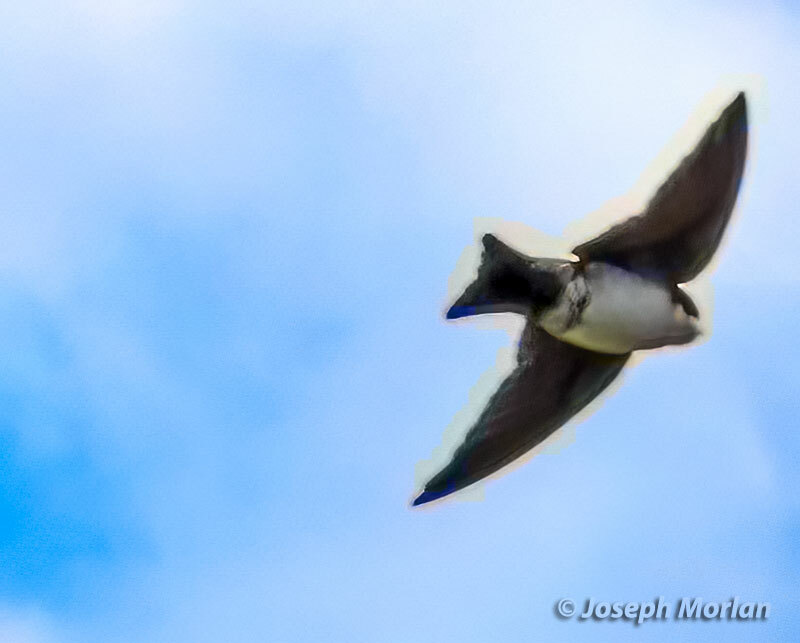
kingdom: Animalia
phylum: Chordata
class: Aves
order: Passeriformes
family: Hirundinidae
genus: Notiochelidon
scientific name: Notiochelidon cyanoleuca
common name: Blue-and-white swallow
